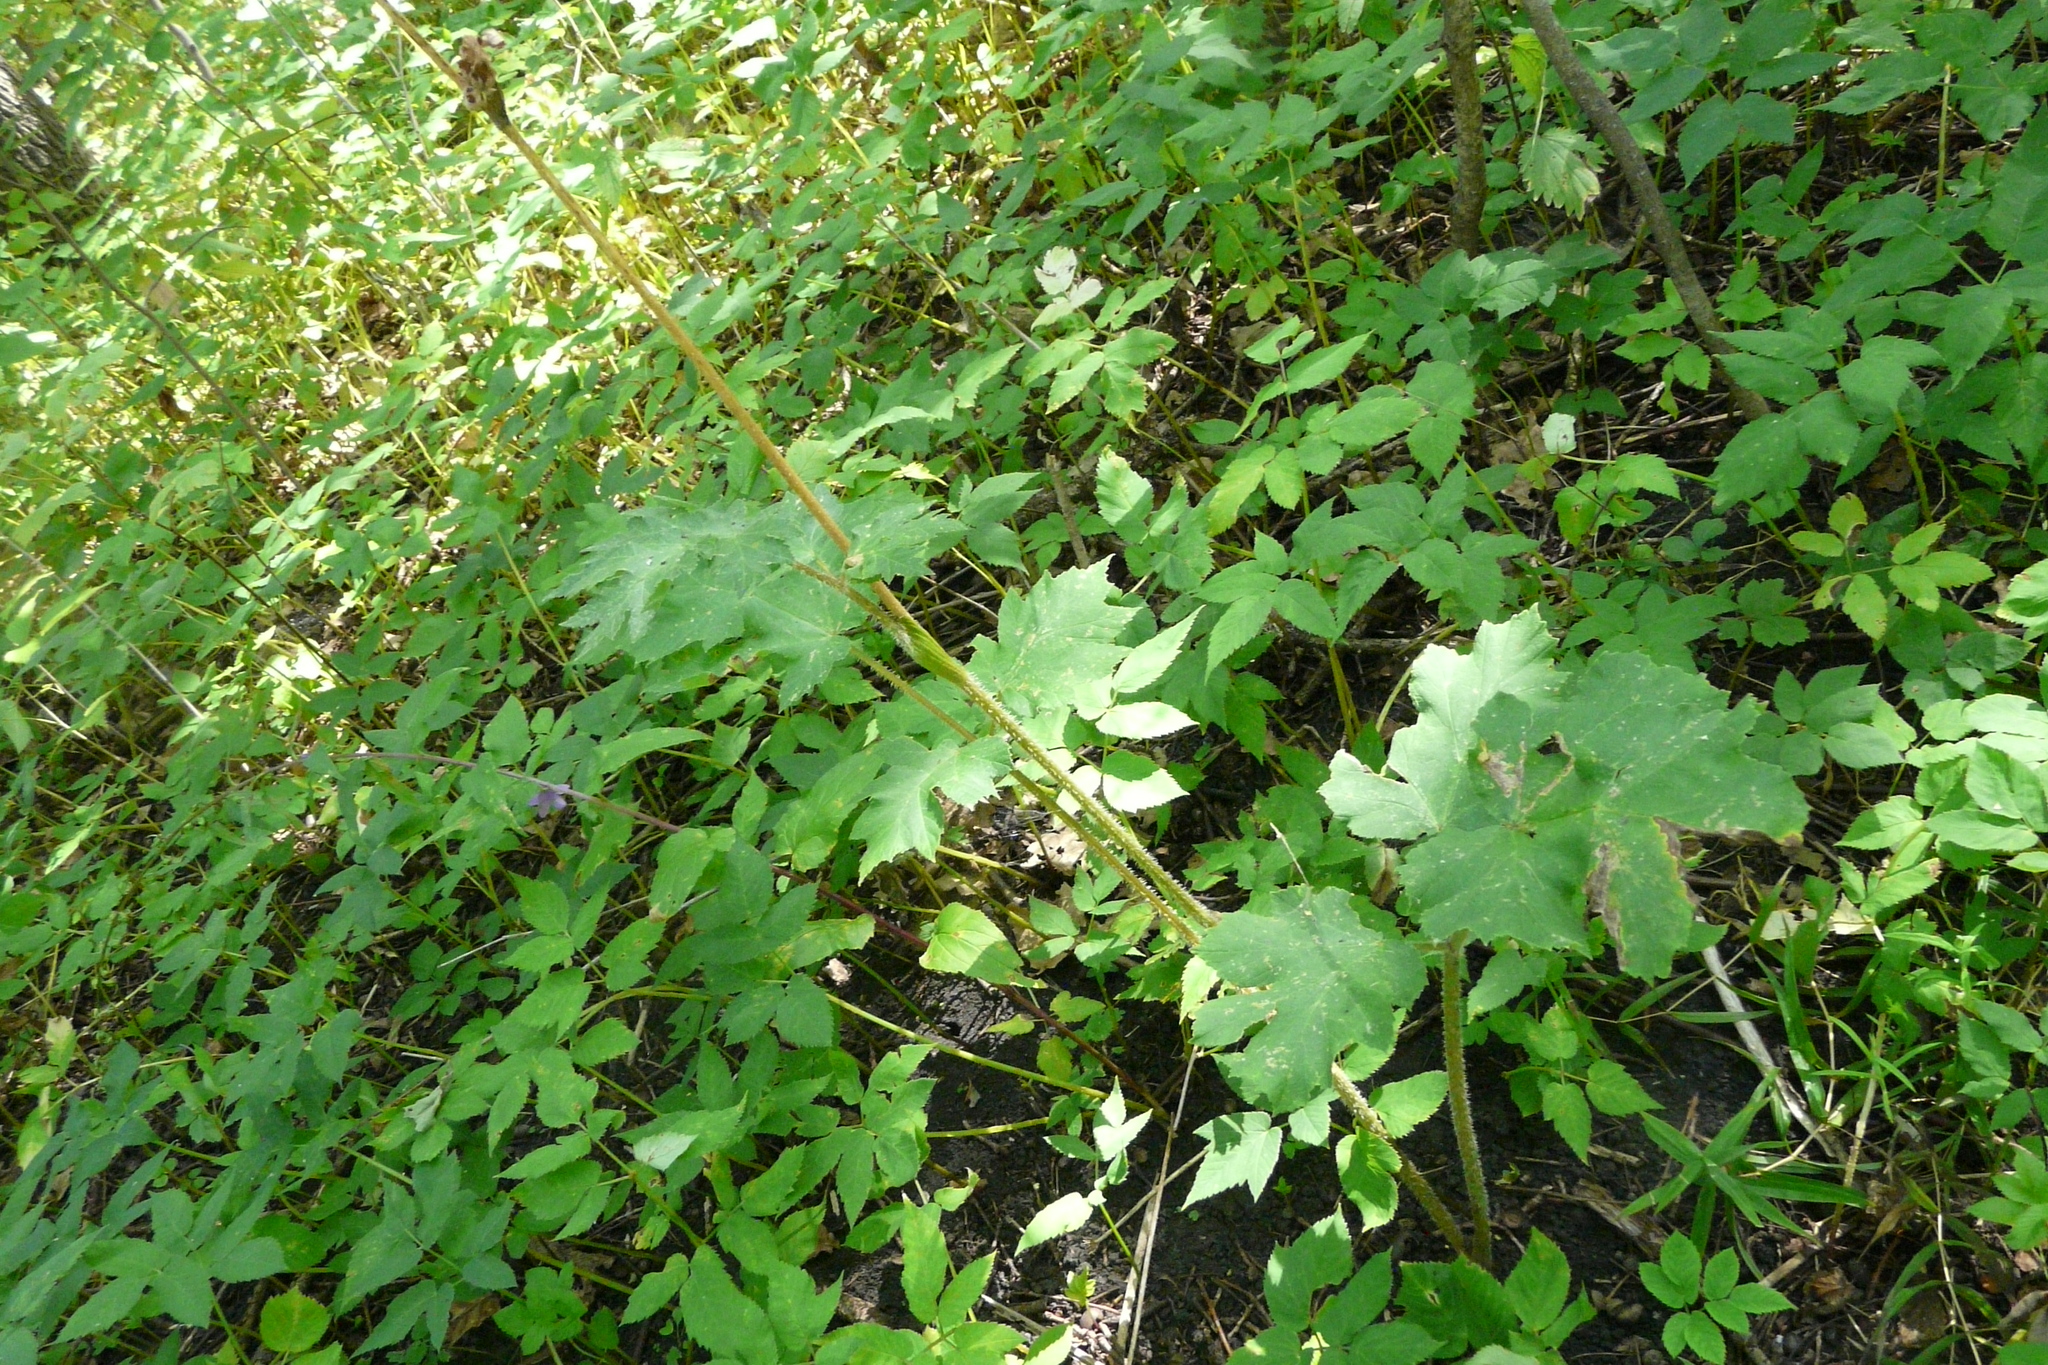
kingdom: Plantae
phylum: Tracheophyta
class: Magnoliopsida
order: Apiales
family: Apiaceae
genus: Heracleum
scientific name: Heracleum sphondylium
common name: Hogweed
